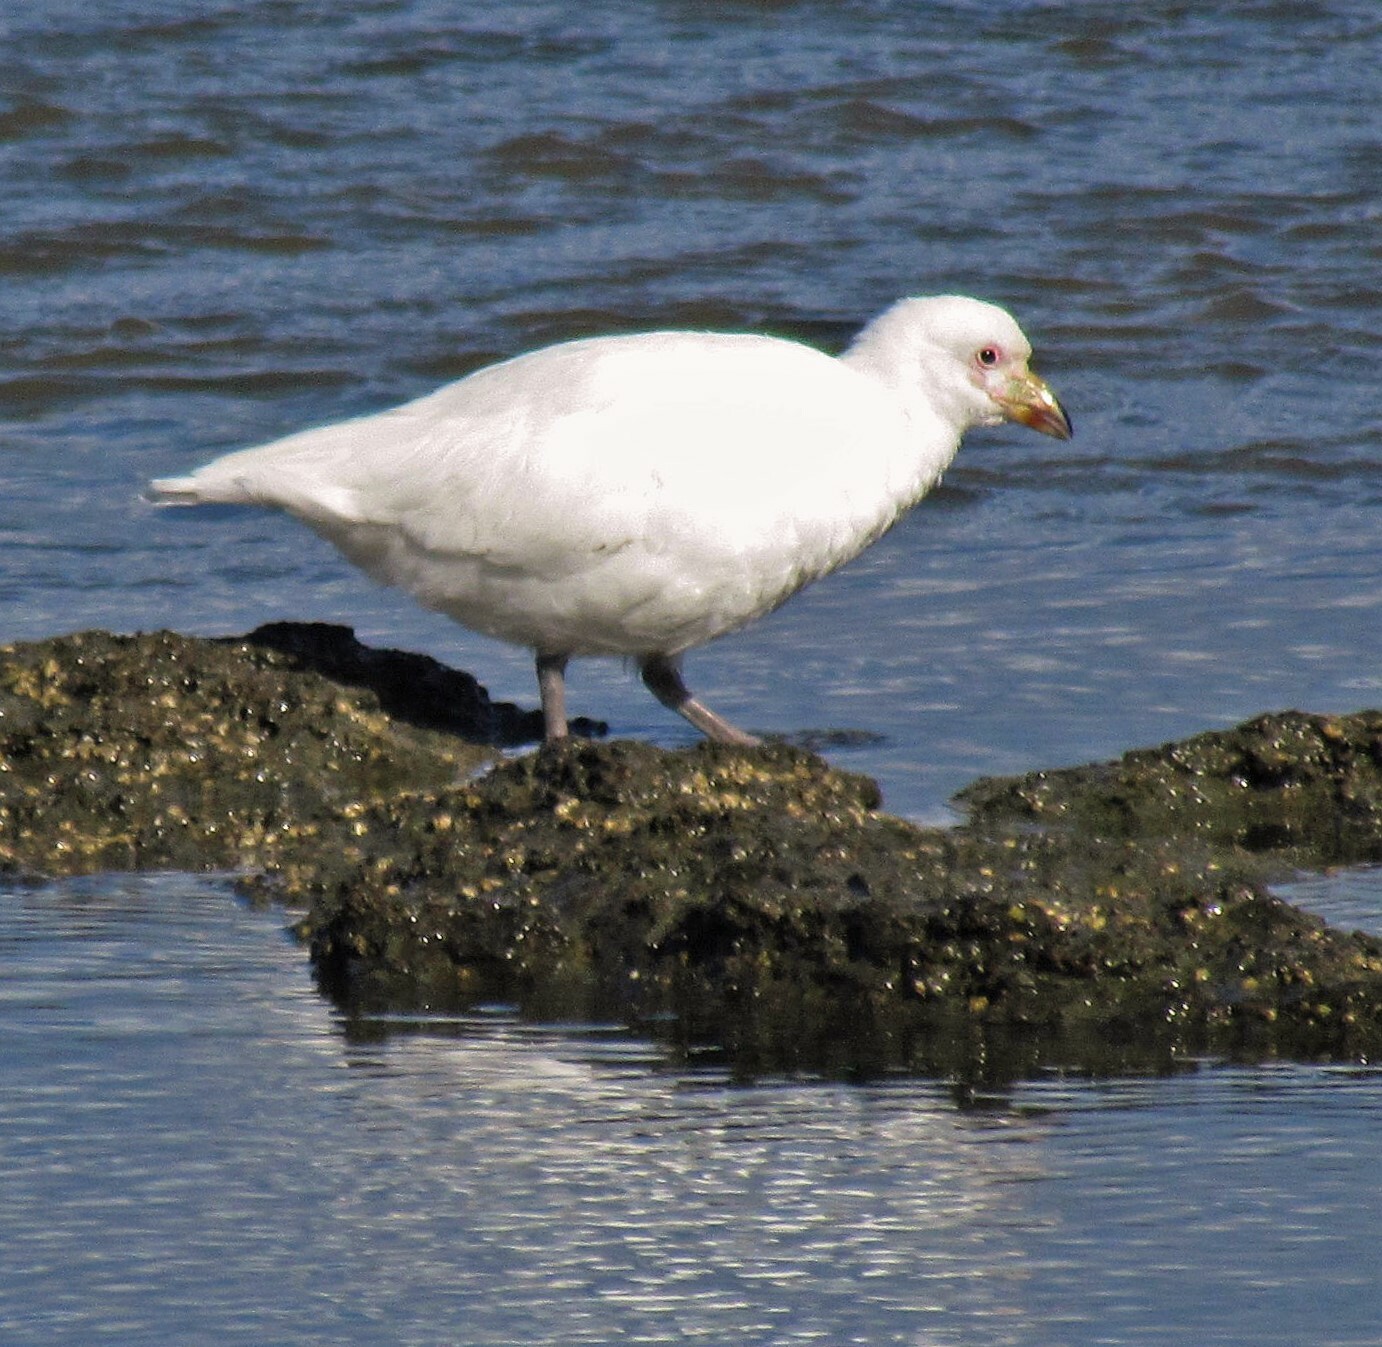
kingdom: Animalia
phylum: Chordata
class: Aves
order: Charadriiformes
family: Chionidae
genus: Chionis
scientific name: Chionis albus
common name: Snowy sheathbill
